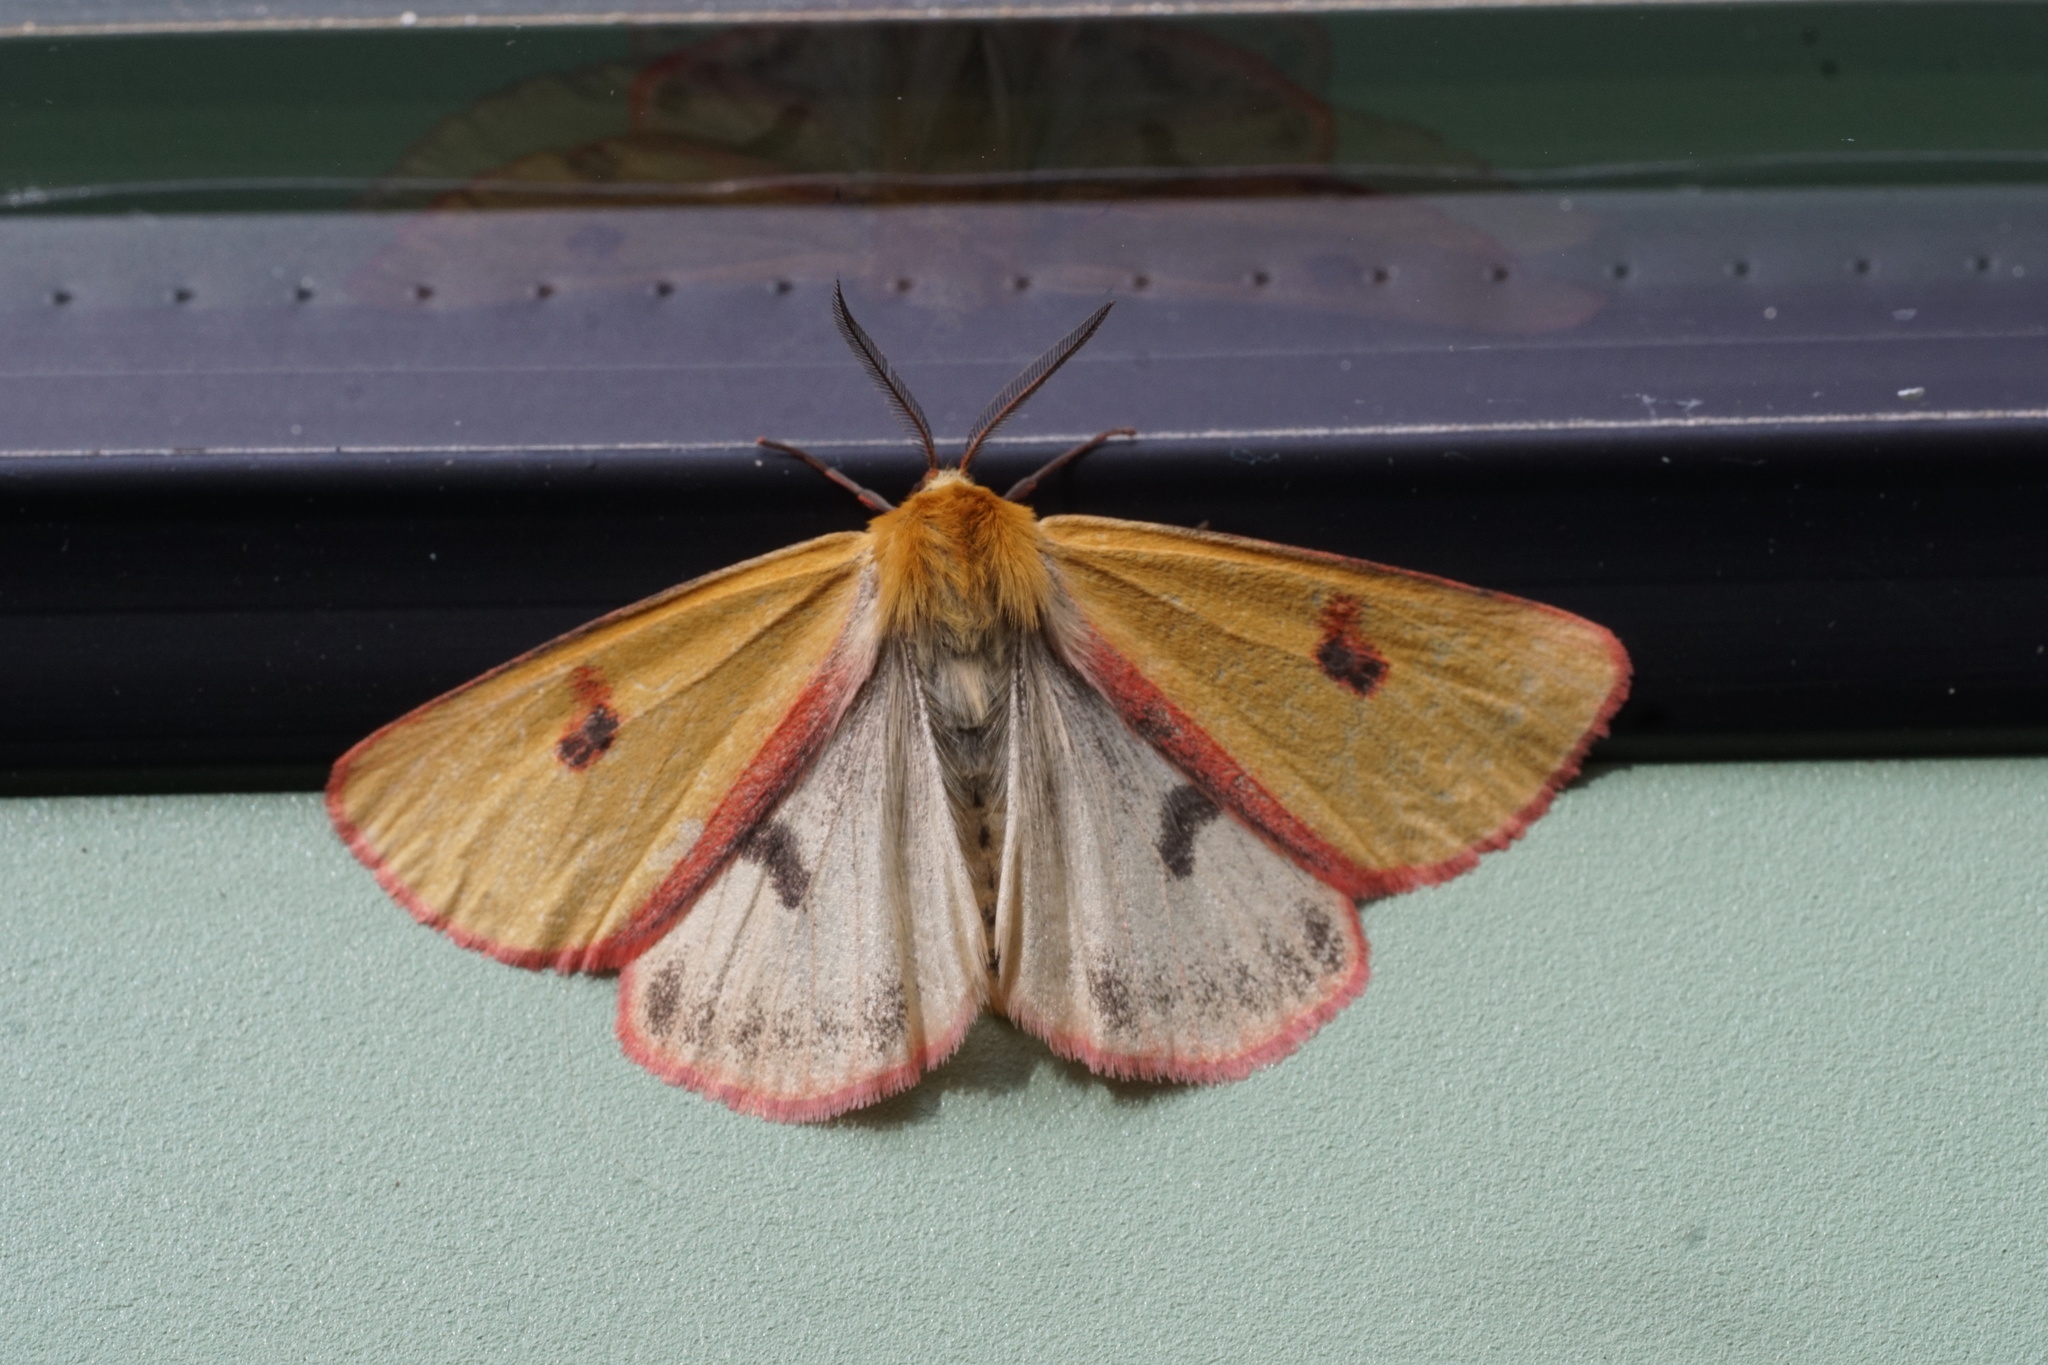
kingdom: Animalia
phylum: Arthropoda
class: Insecta
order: Lepidoptera
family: Erebidae
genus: Diacrisia
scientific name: Diacrisia sannio
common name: Clouded buff
